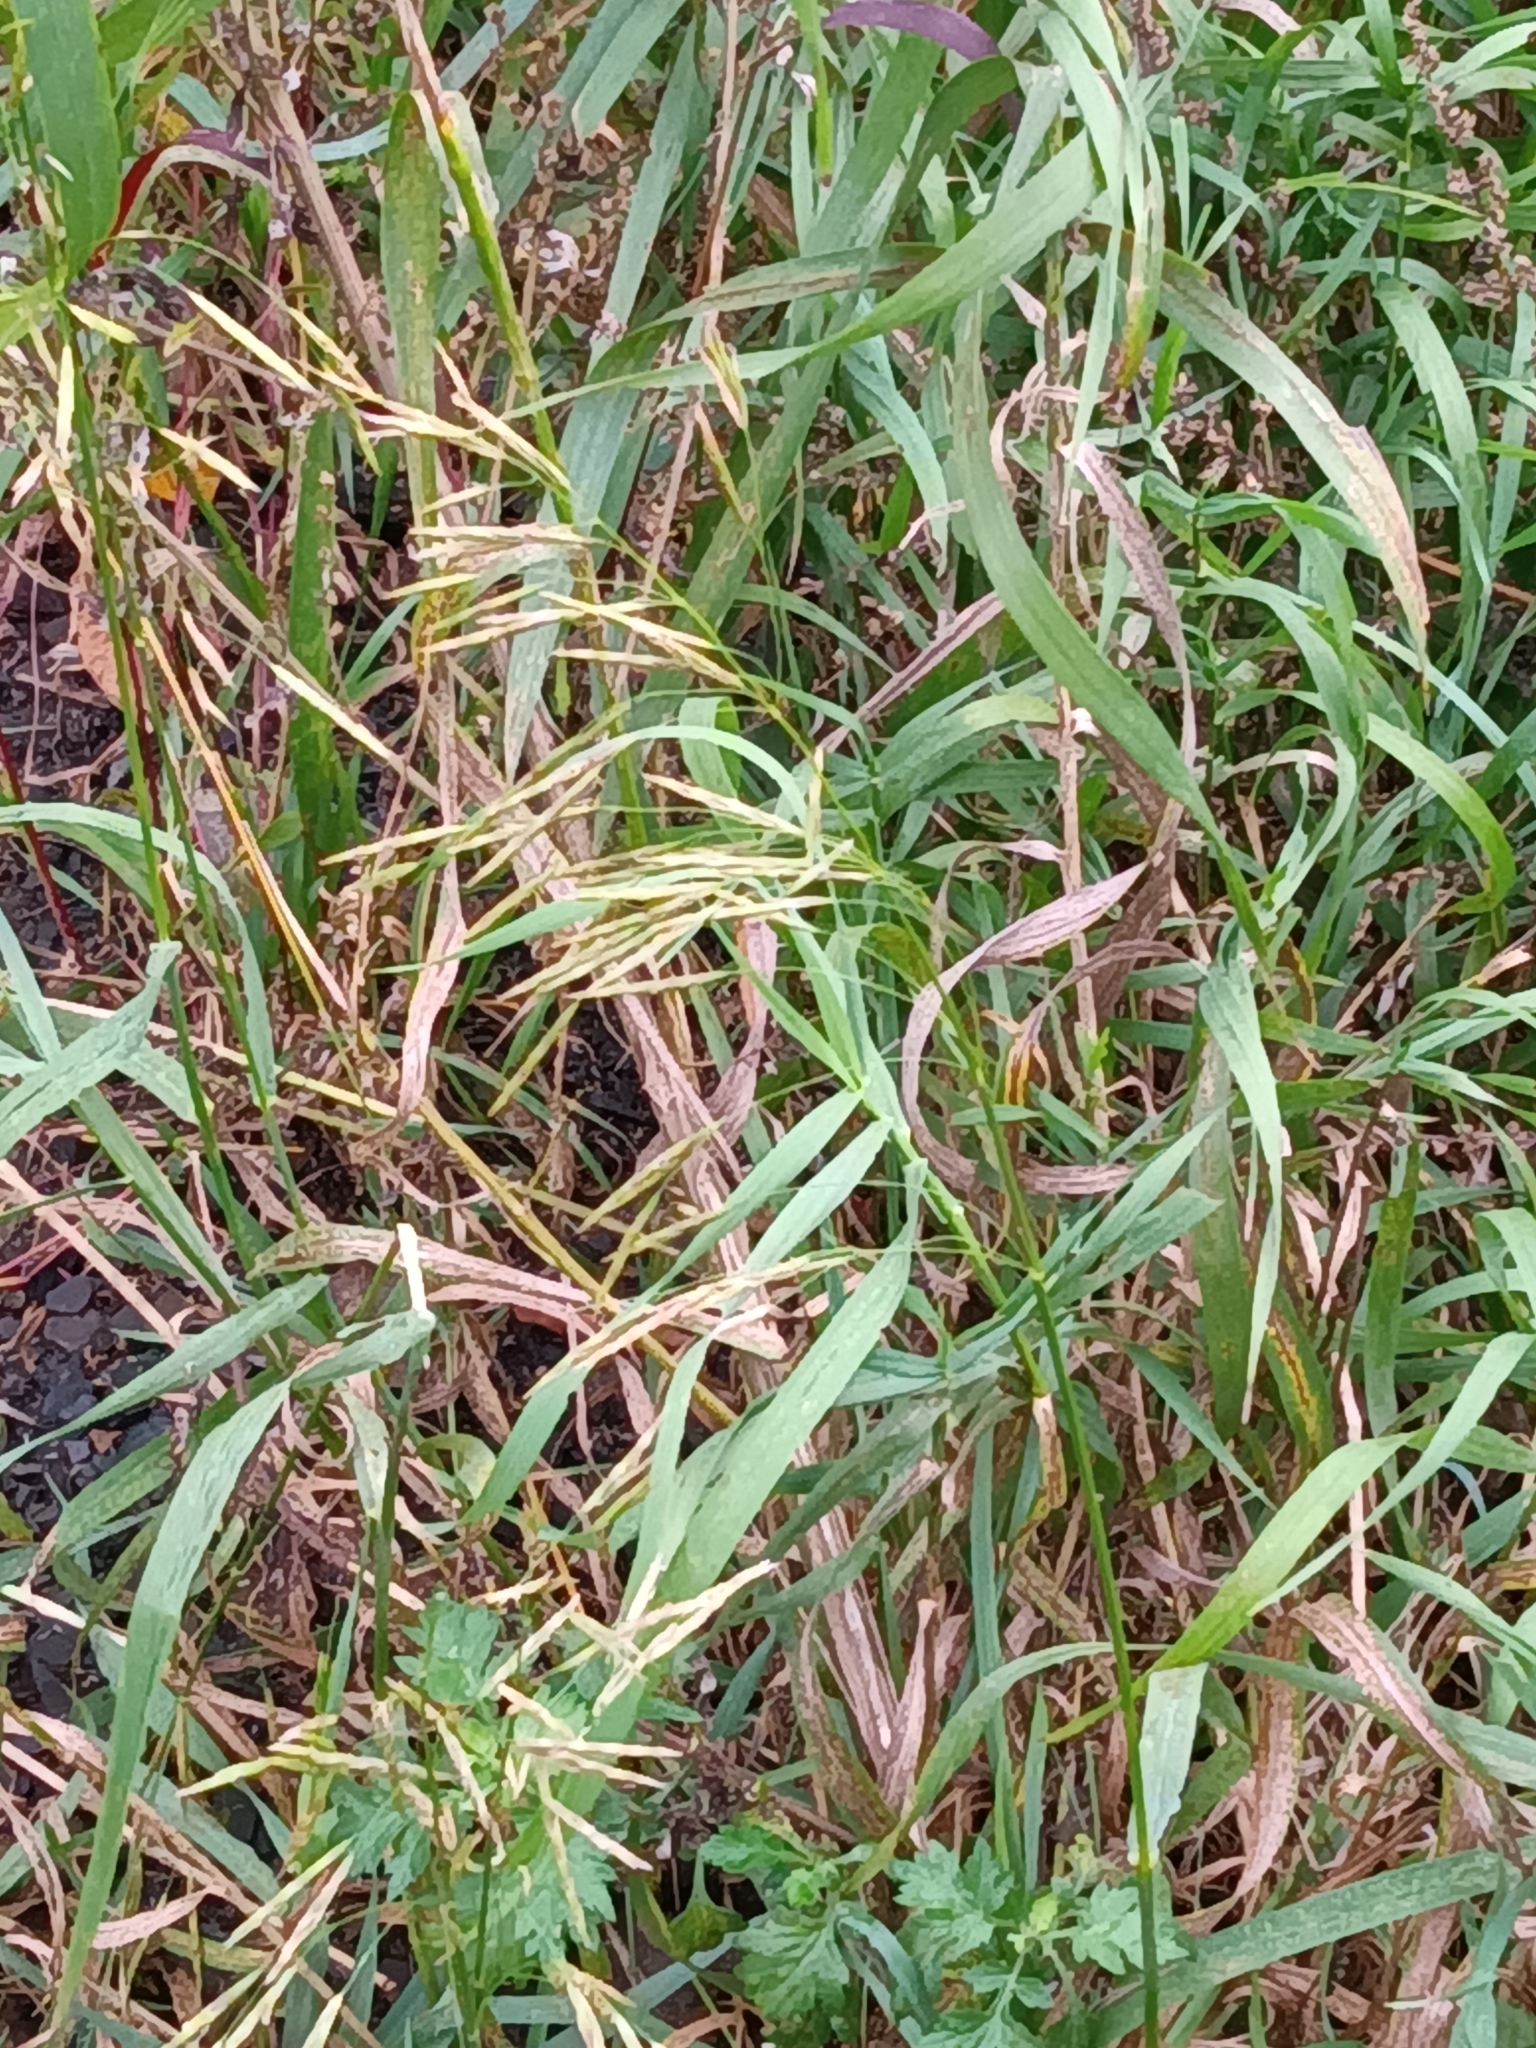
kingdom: Plantae
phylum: Tracheophyta
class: Liliopsida
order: Poales
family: Poaceae
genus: Bromus
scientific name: Bromus inermis
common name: Smooth brome
